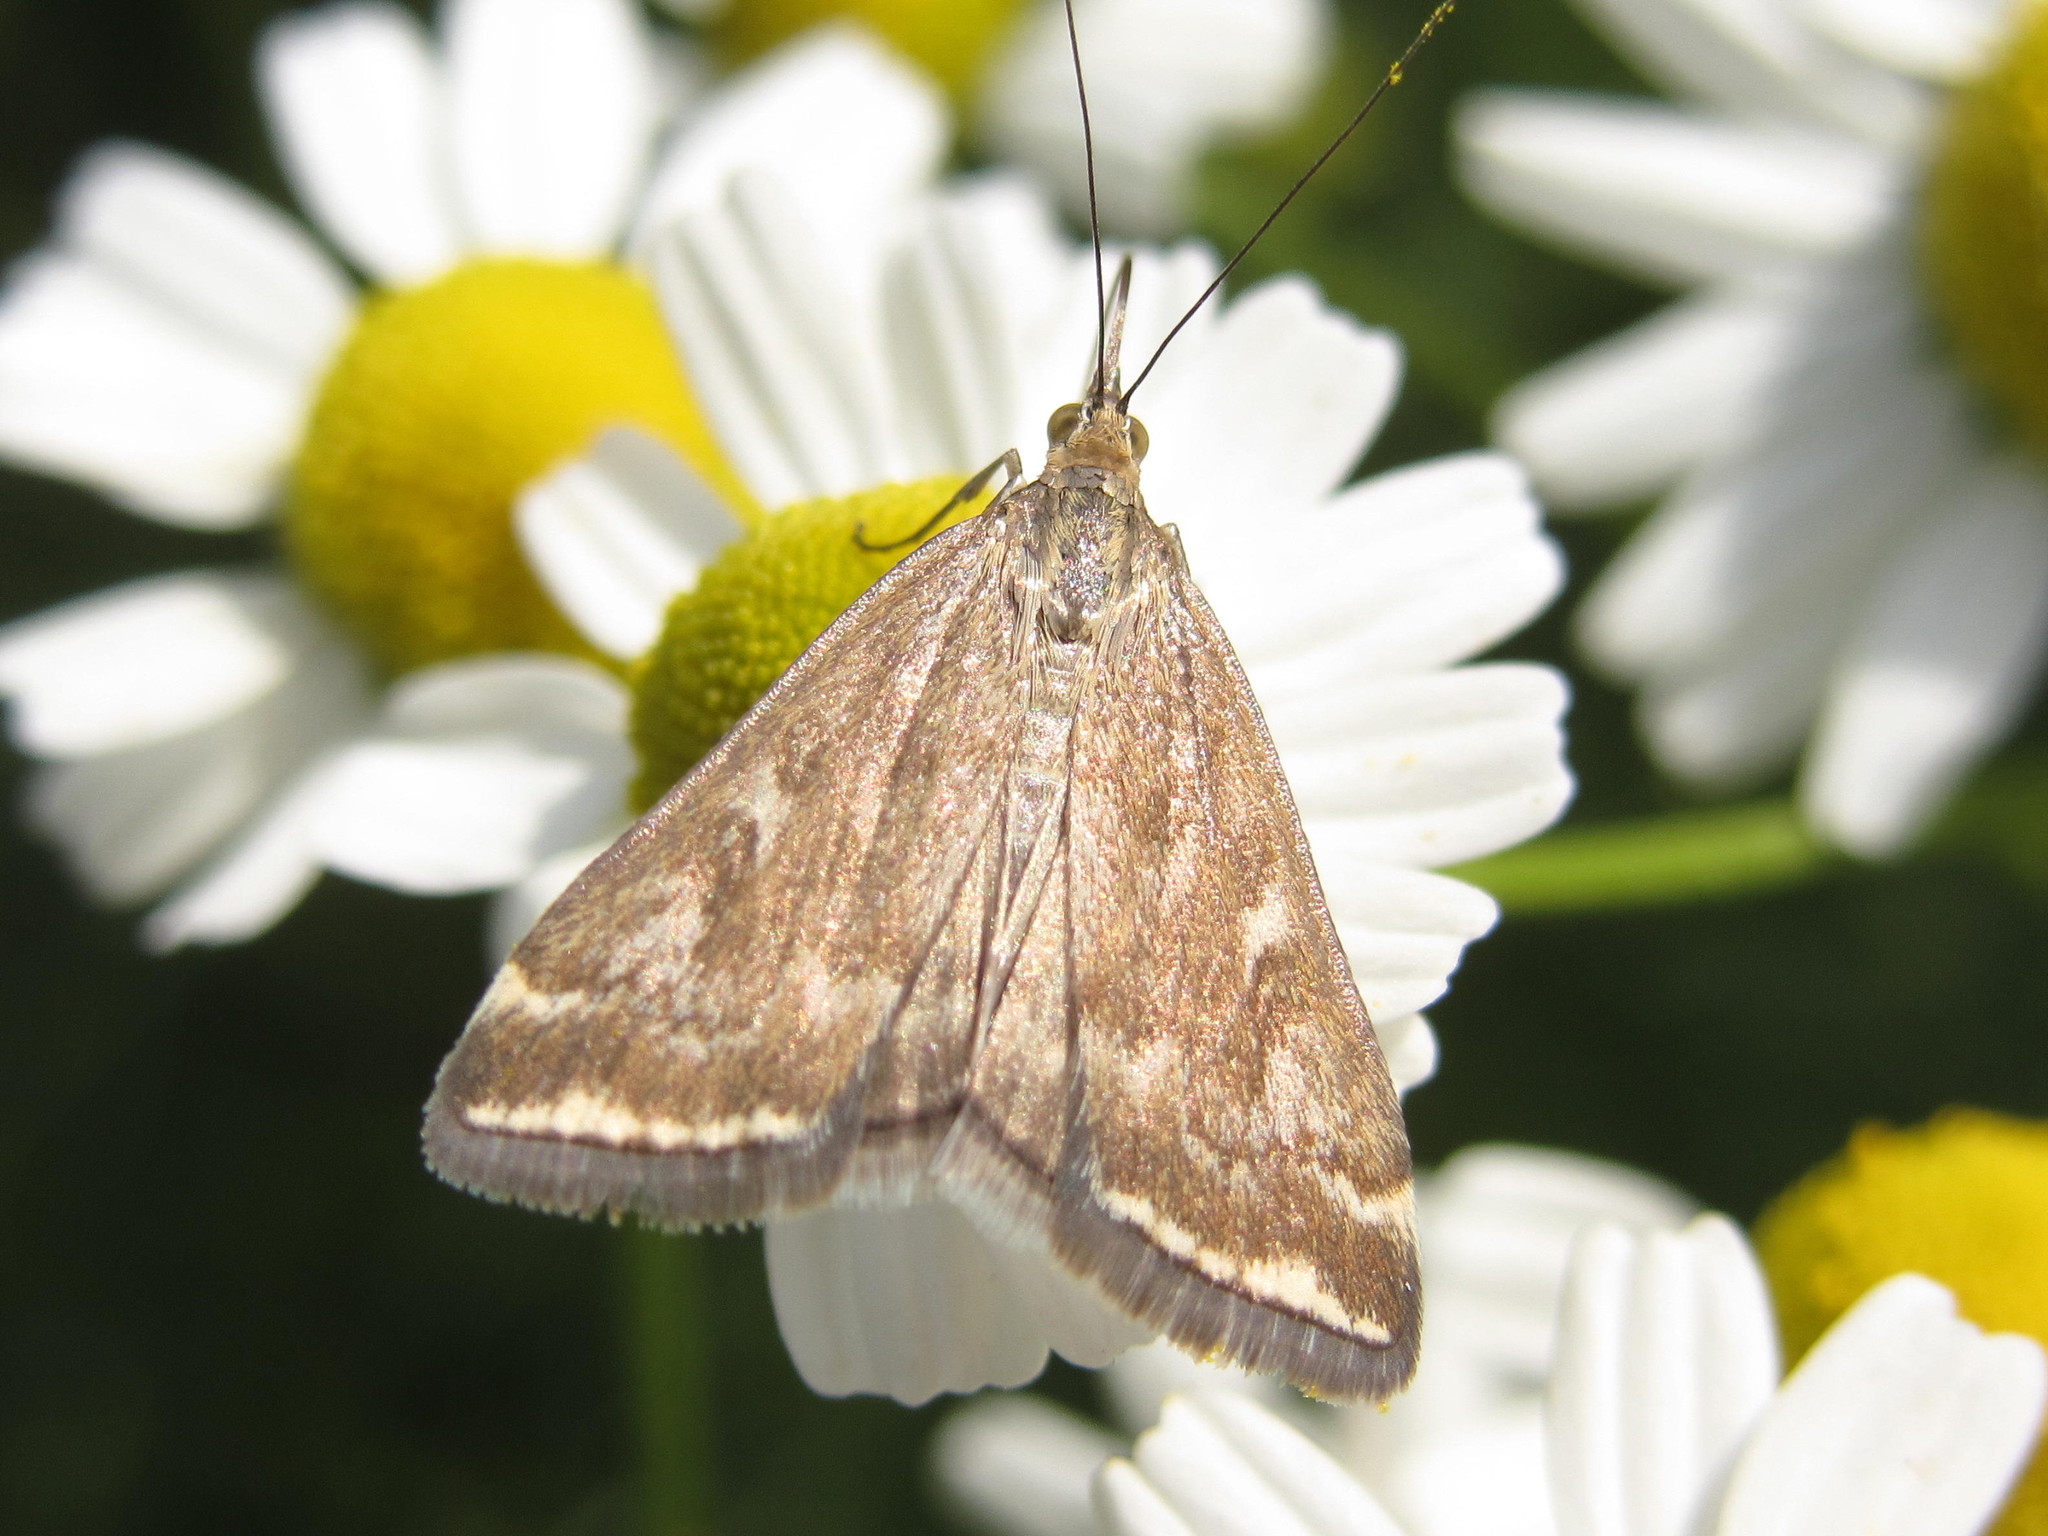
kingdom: Animalia
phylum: Arthropoda
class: Insecta
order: Lepidoptera
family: Crambidae
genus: Loxostege
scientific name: Loxostege sticticalis
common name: Crambid moth
